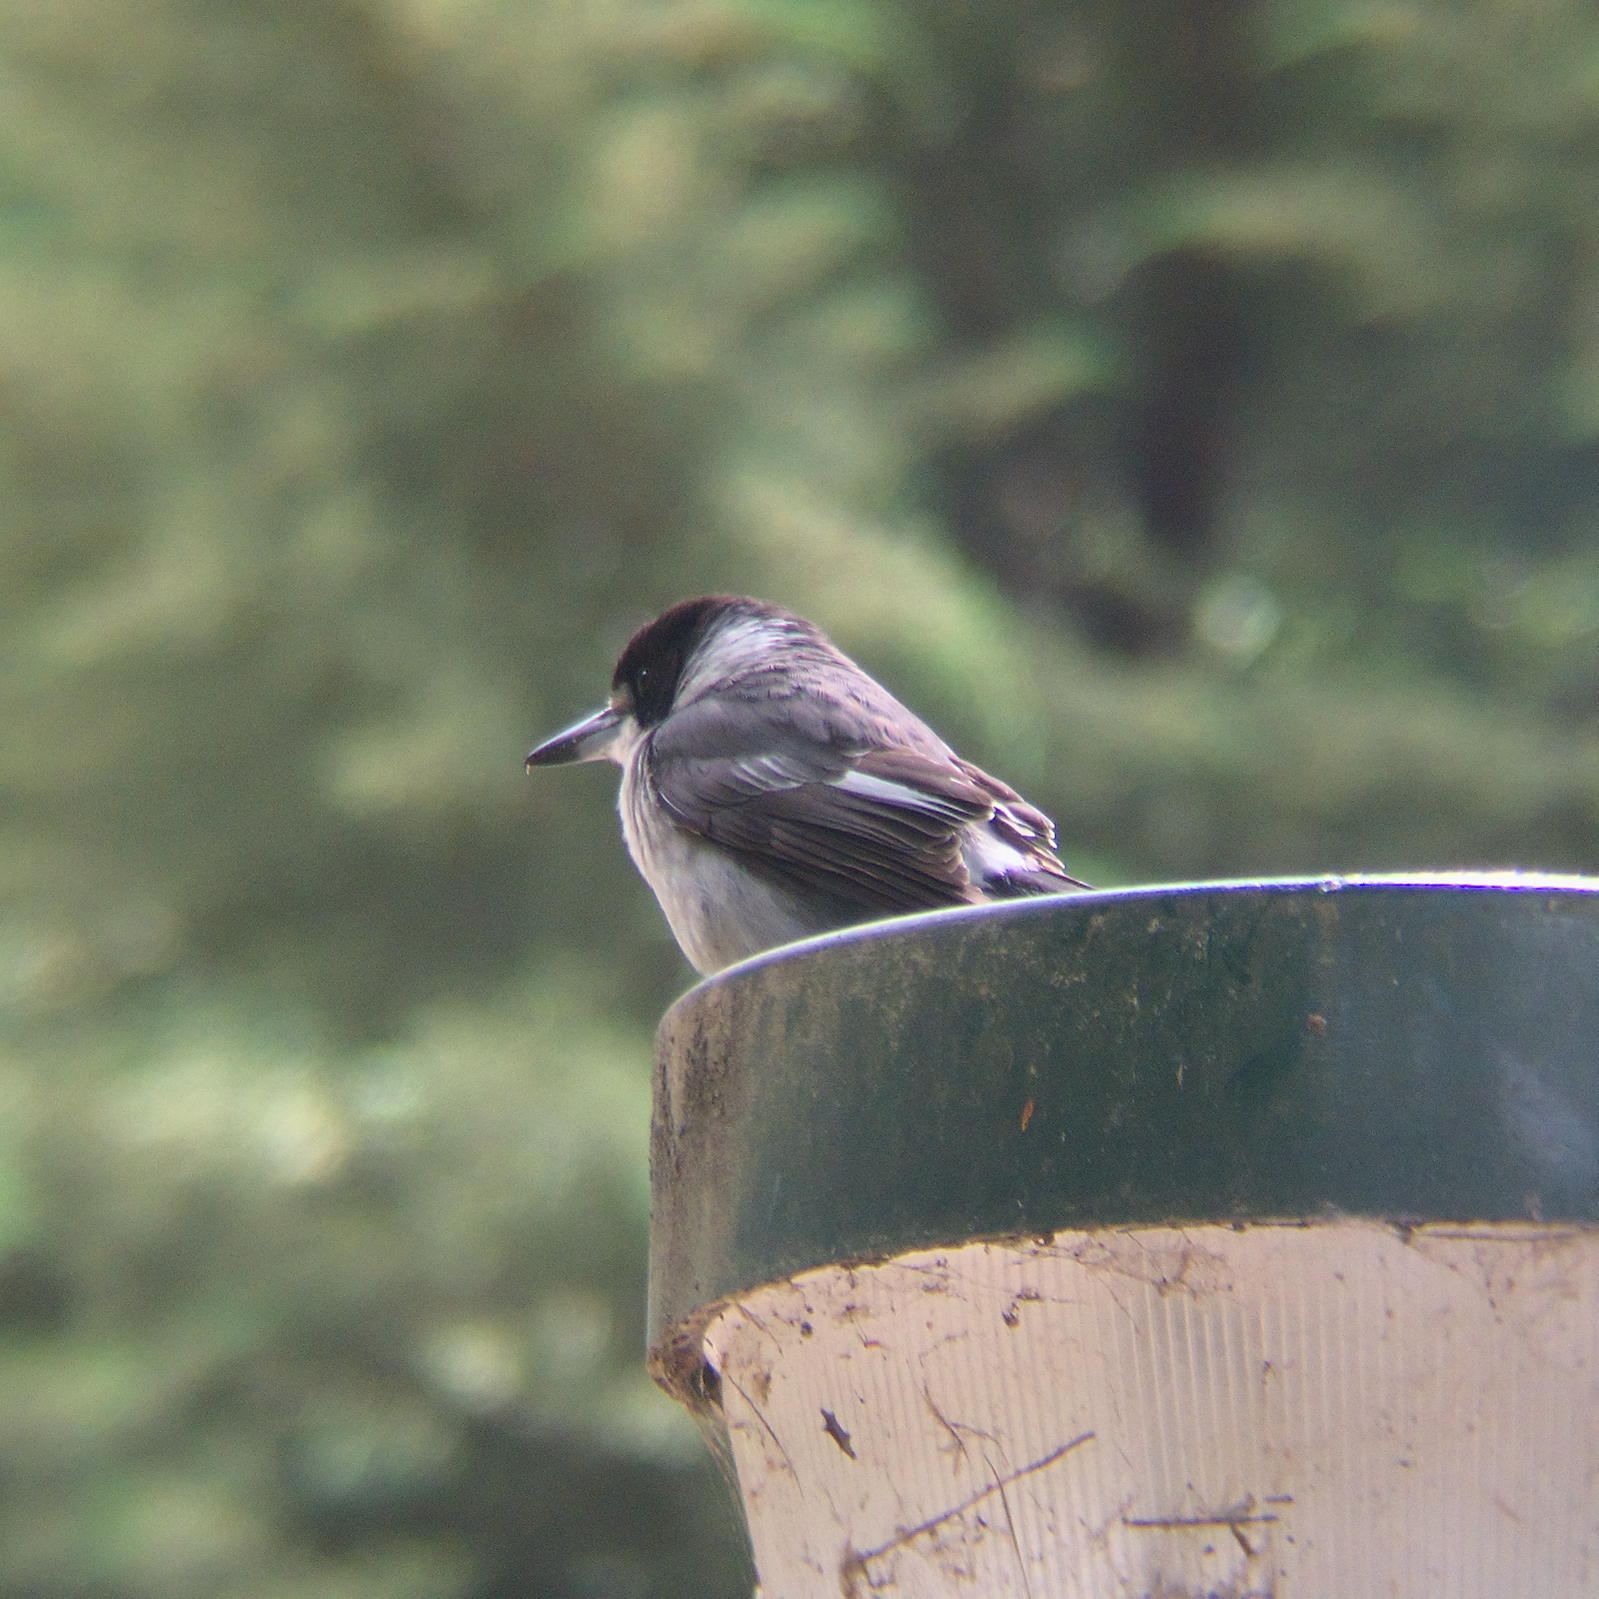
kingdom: Animalia
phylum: Chordata
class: Aves
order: Passeriformes
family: Cracticidae
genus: Cracticus
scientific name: Cracticus torquatus
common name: Grey butcherbird
